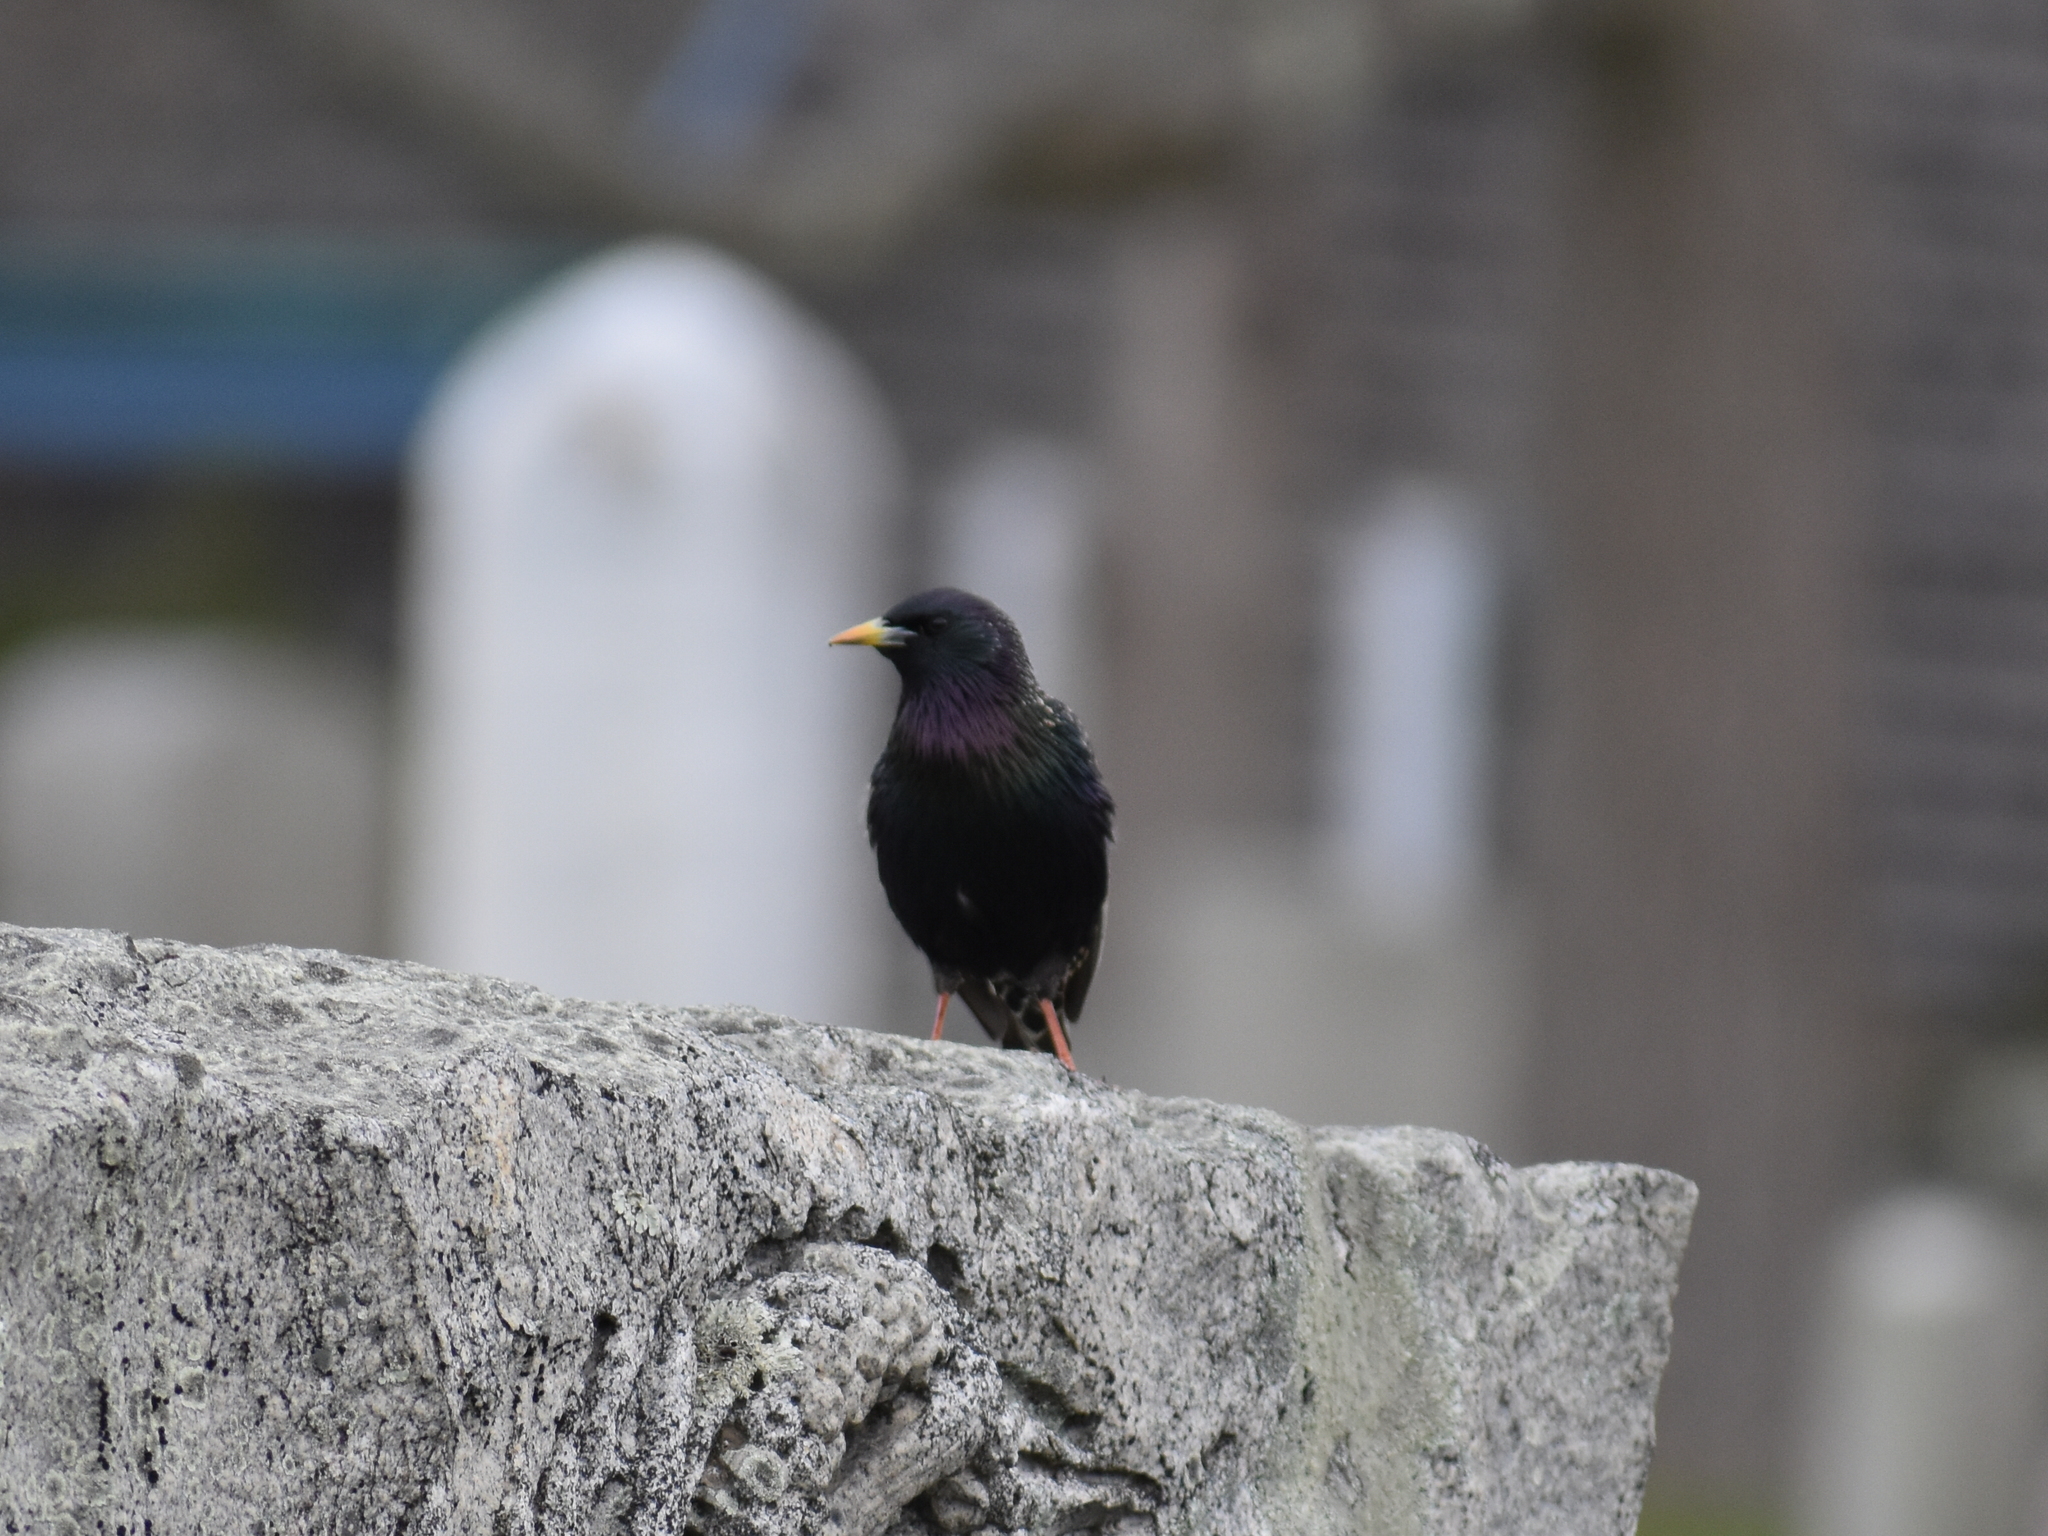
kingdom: Animalia
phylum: Chordata
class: Aves
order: Passeriformes
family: Sturnidae
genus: Sturnus
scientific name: Sturnus vulgaris
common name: Common starling
